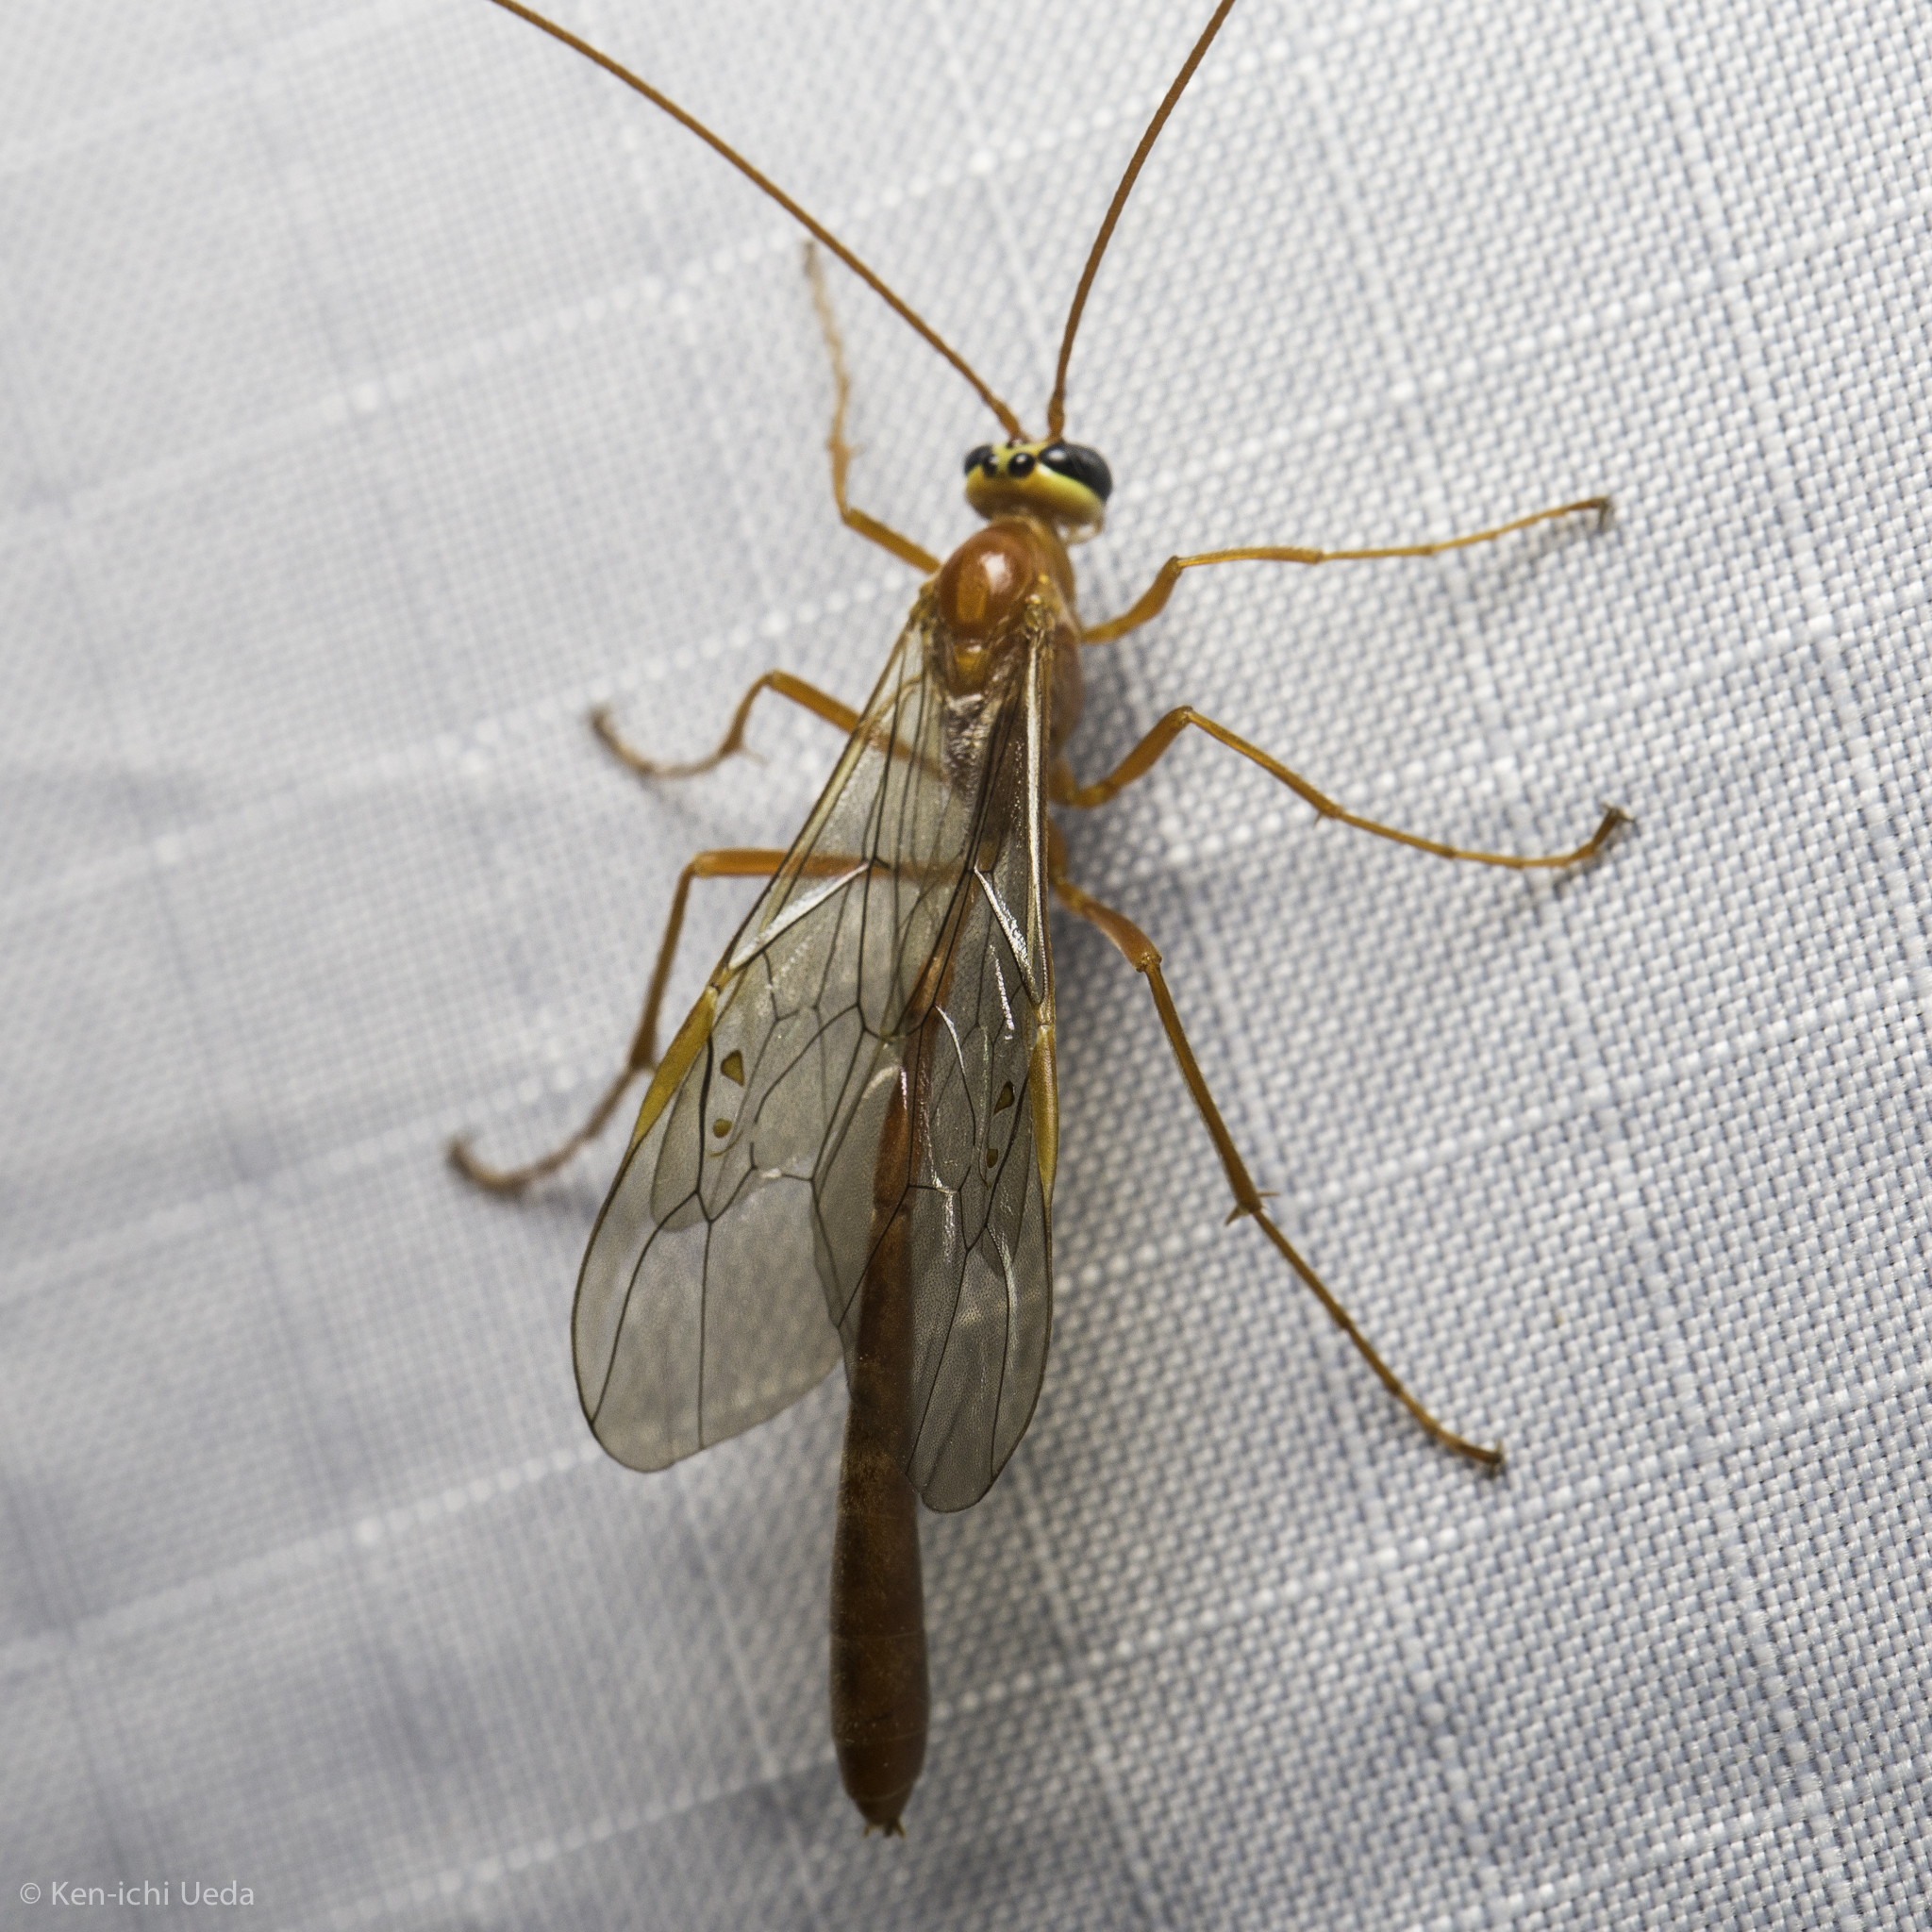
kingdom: Animalia
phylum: Arthropoda
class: Insecta
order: Hymenoptera
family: Ichneumonidae
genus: Enicospilus
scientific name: Enicospilus purgatus
